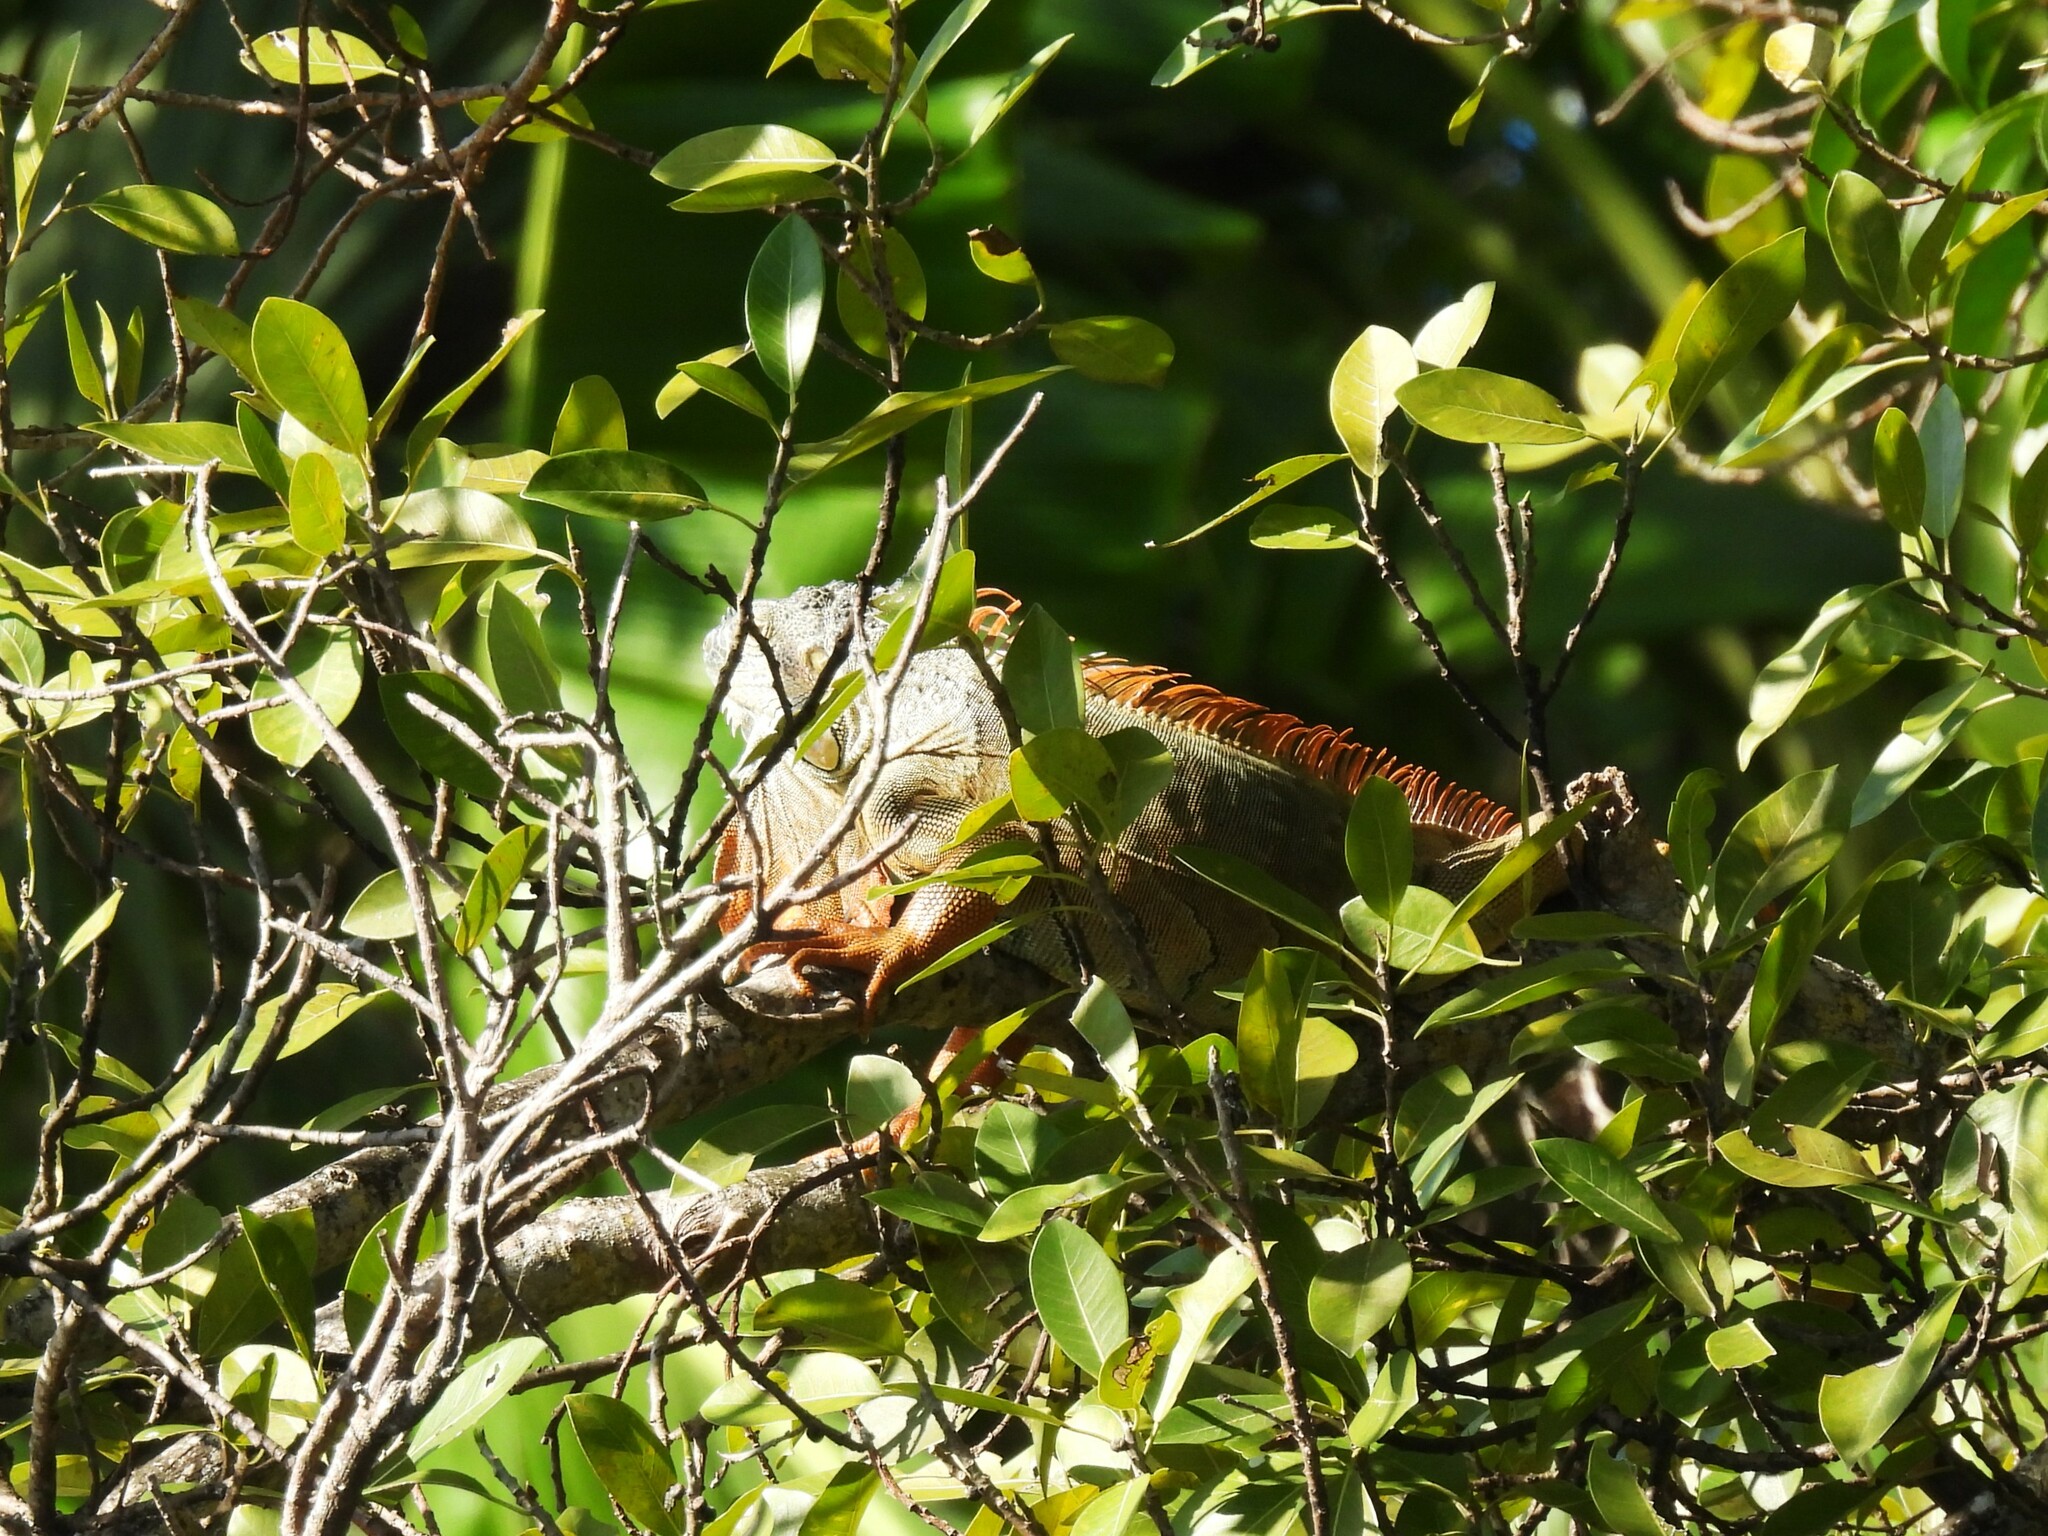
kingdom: Animalia
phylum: Chordata
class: Squamata
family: Iguanidae
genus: Iguana
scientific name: Iguana iguana
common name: Green iguana
